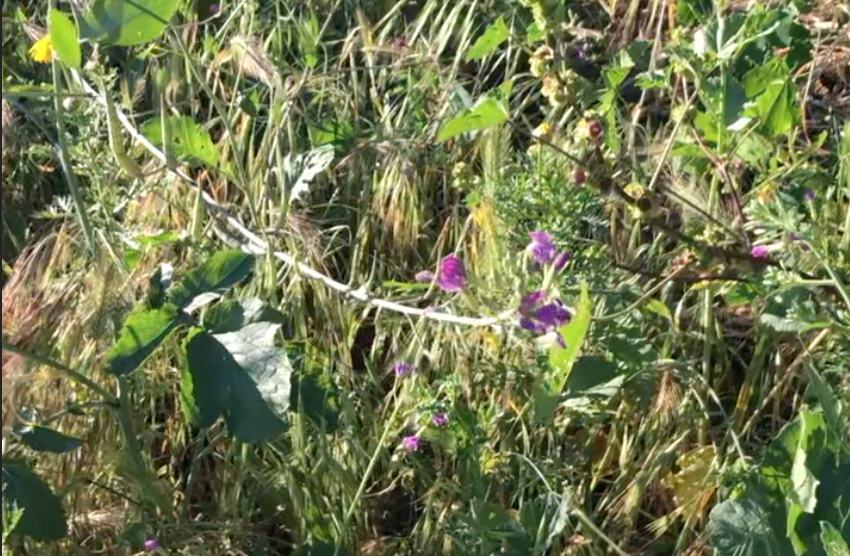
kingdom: Plantae
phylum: Tracheophyta
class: Magnoliopsida
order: Brassicales
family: Brassicaceae
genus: Raphanus
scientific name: Raphanus sativus
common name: Cultivated radish
